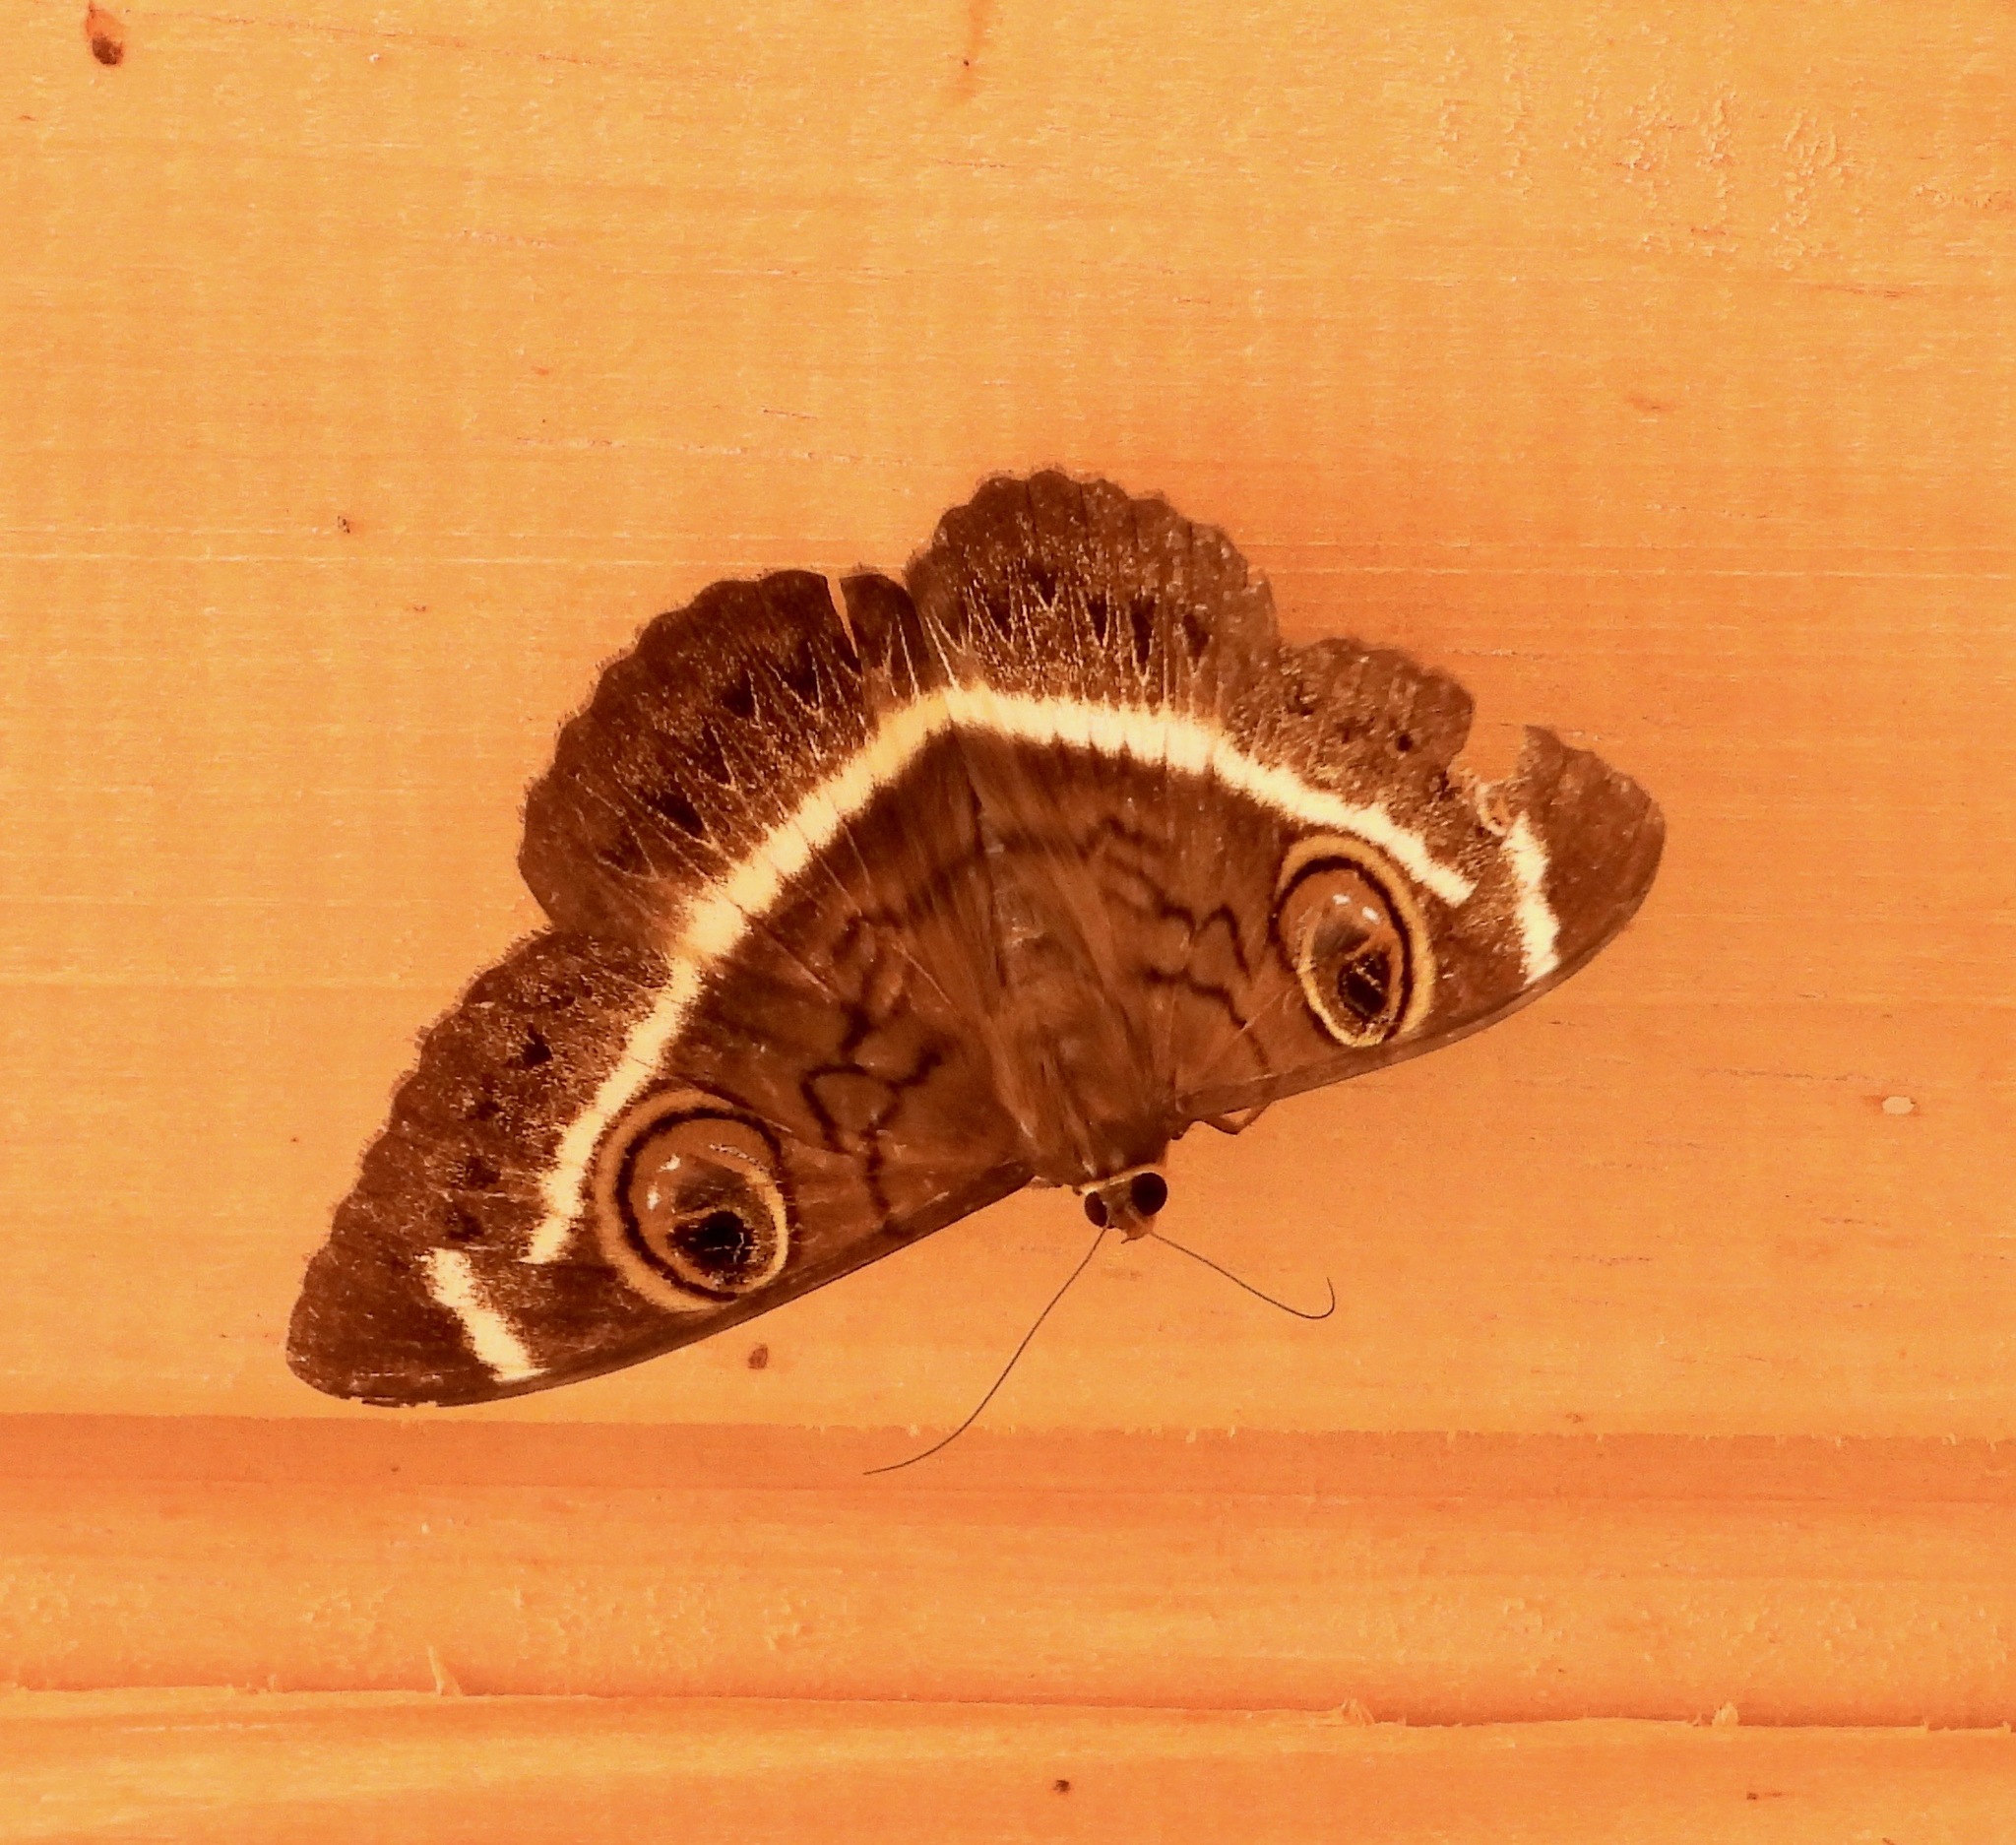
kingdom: Animalia
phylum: Arthropoda
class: Insecta
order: Lepidoptera
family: Erebidae
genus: Cyligramma
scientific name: Cyligramma latona
